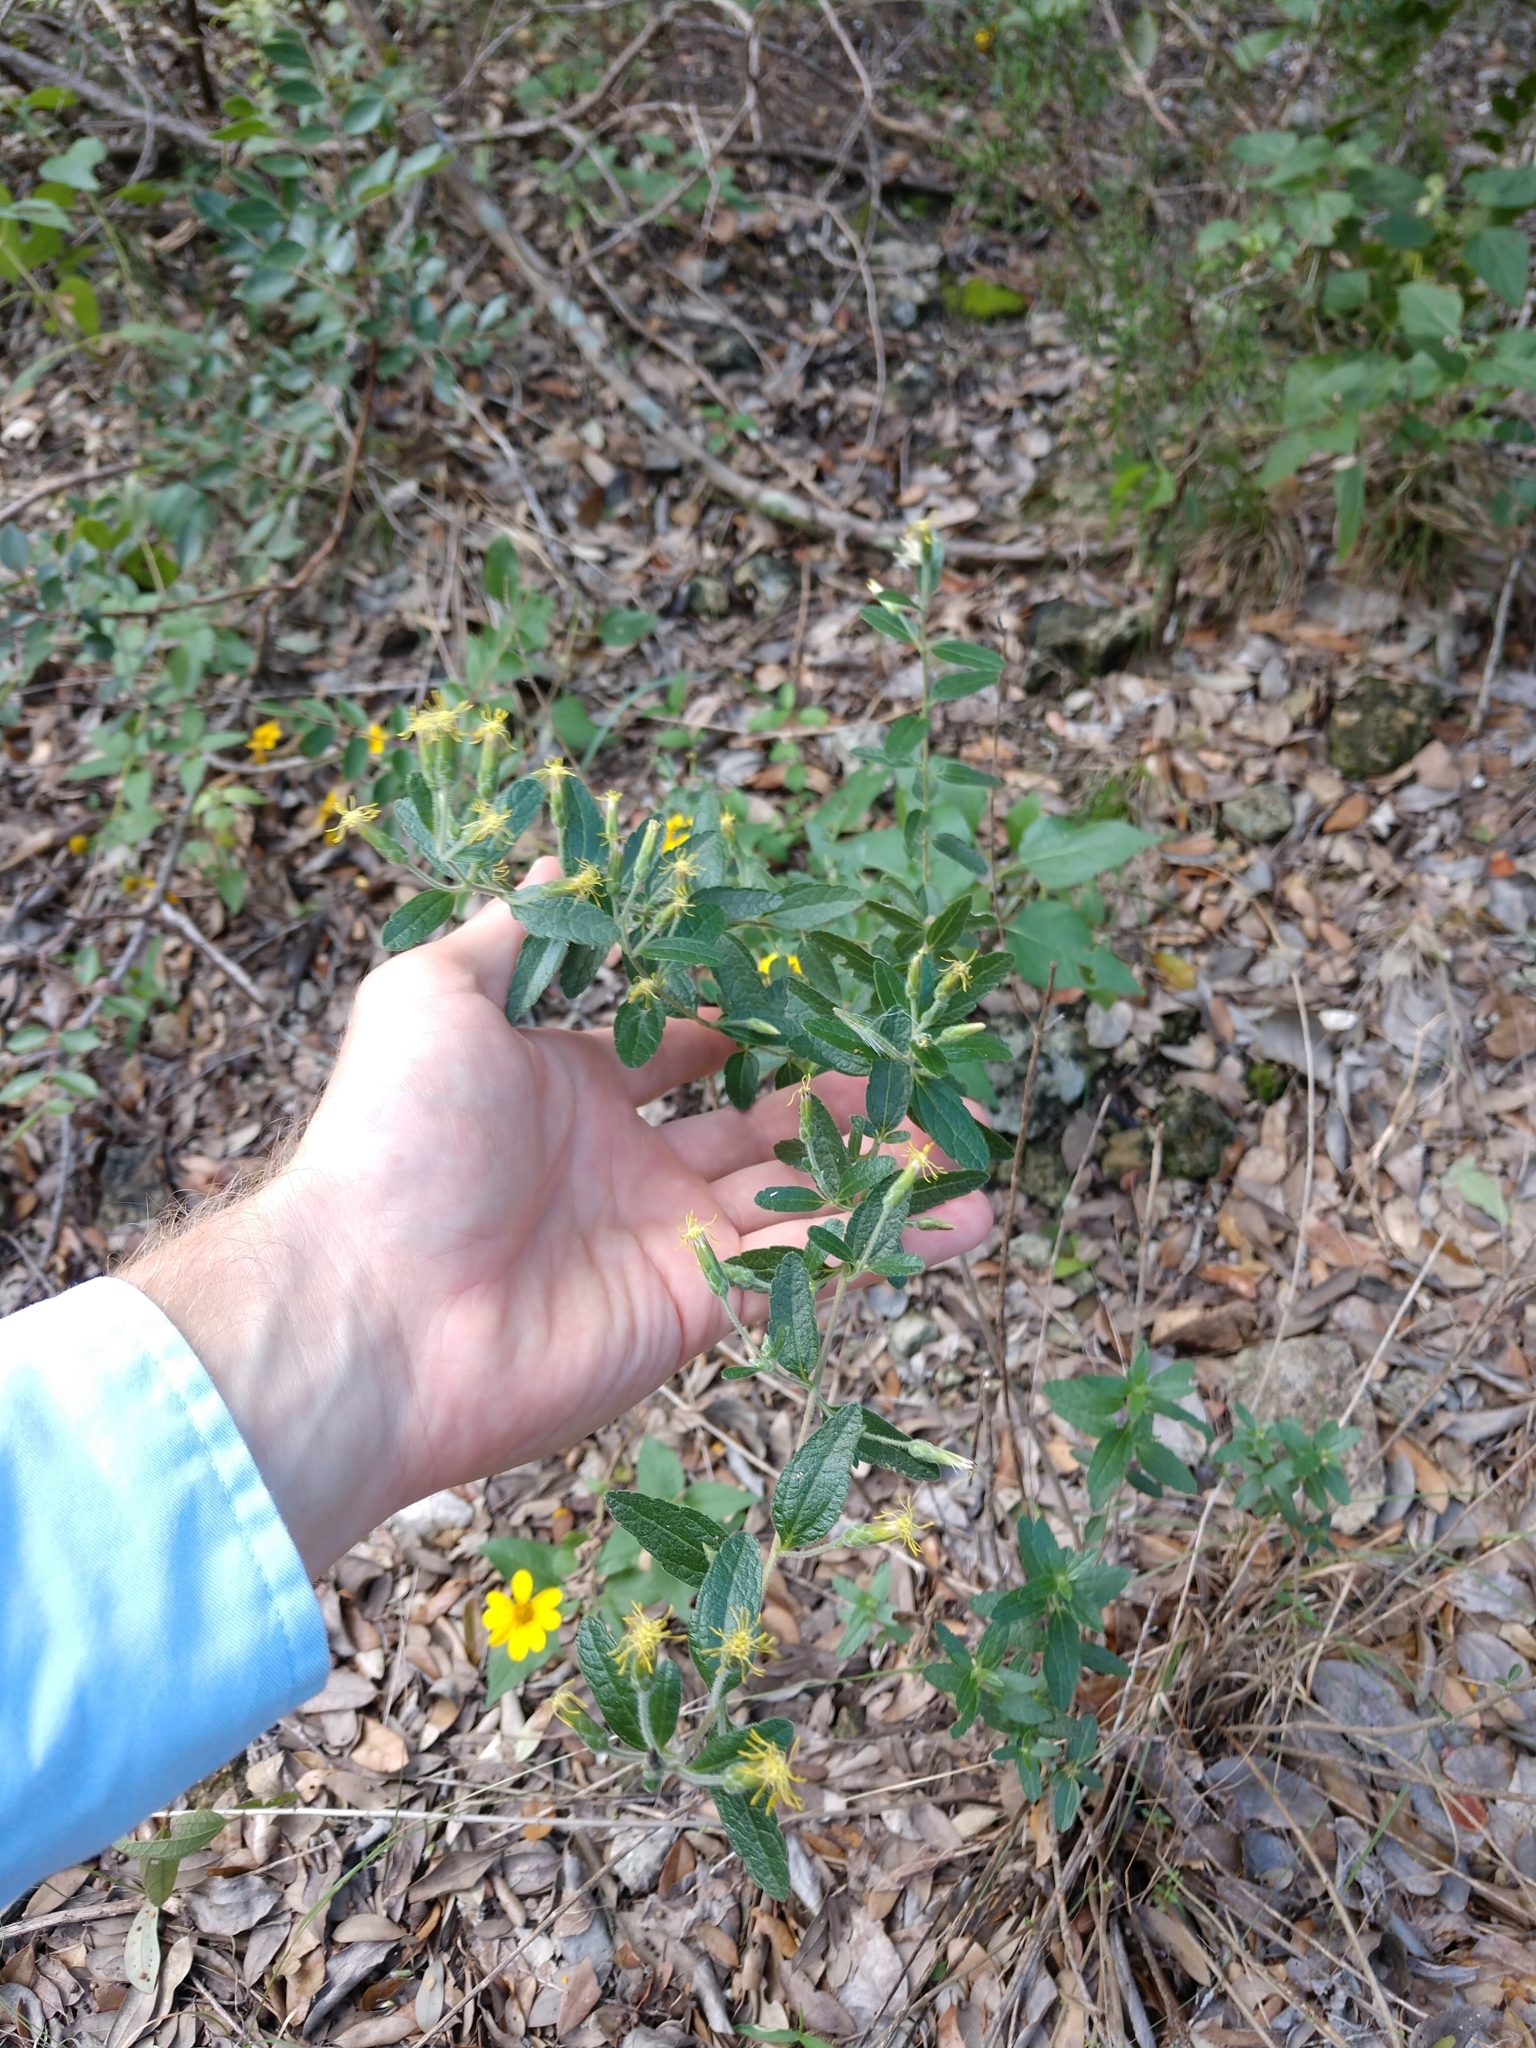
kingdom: Plantae
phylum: Tracheophyta
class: Magnoliopsida
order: Asterales
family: Asteraceae
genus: Brickellia
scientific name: Brickellia cylindracea
